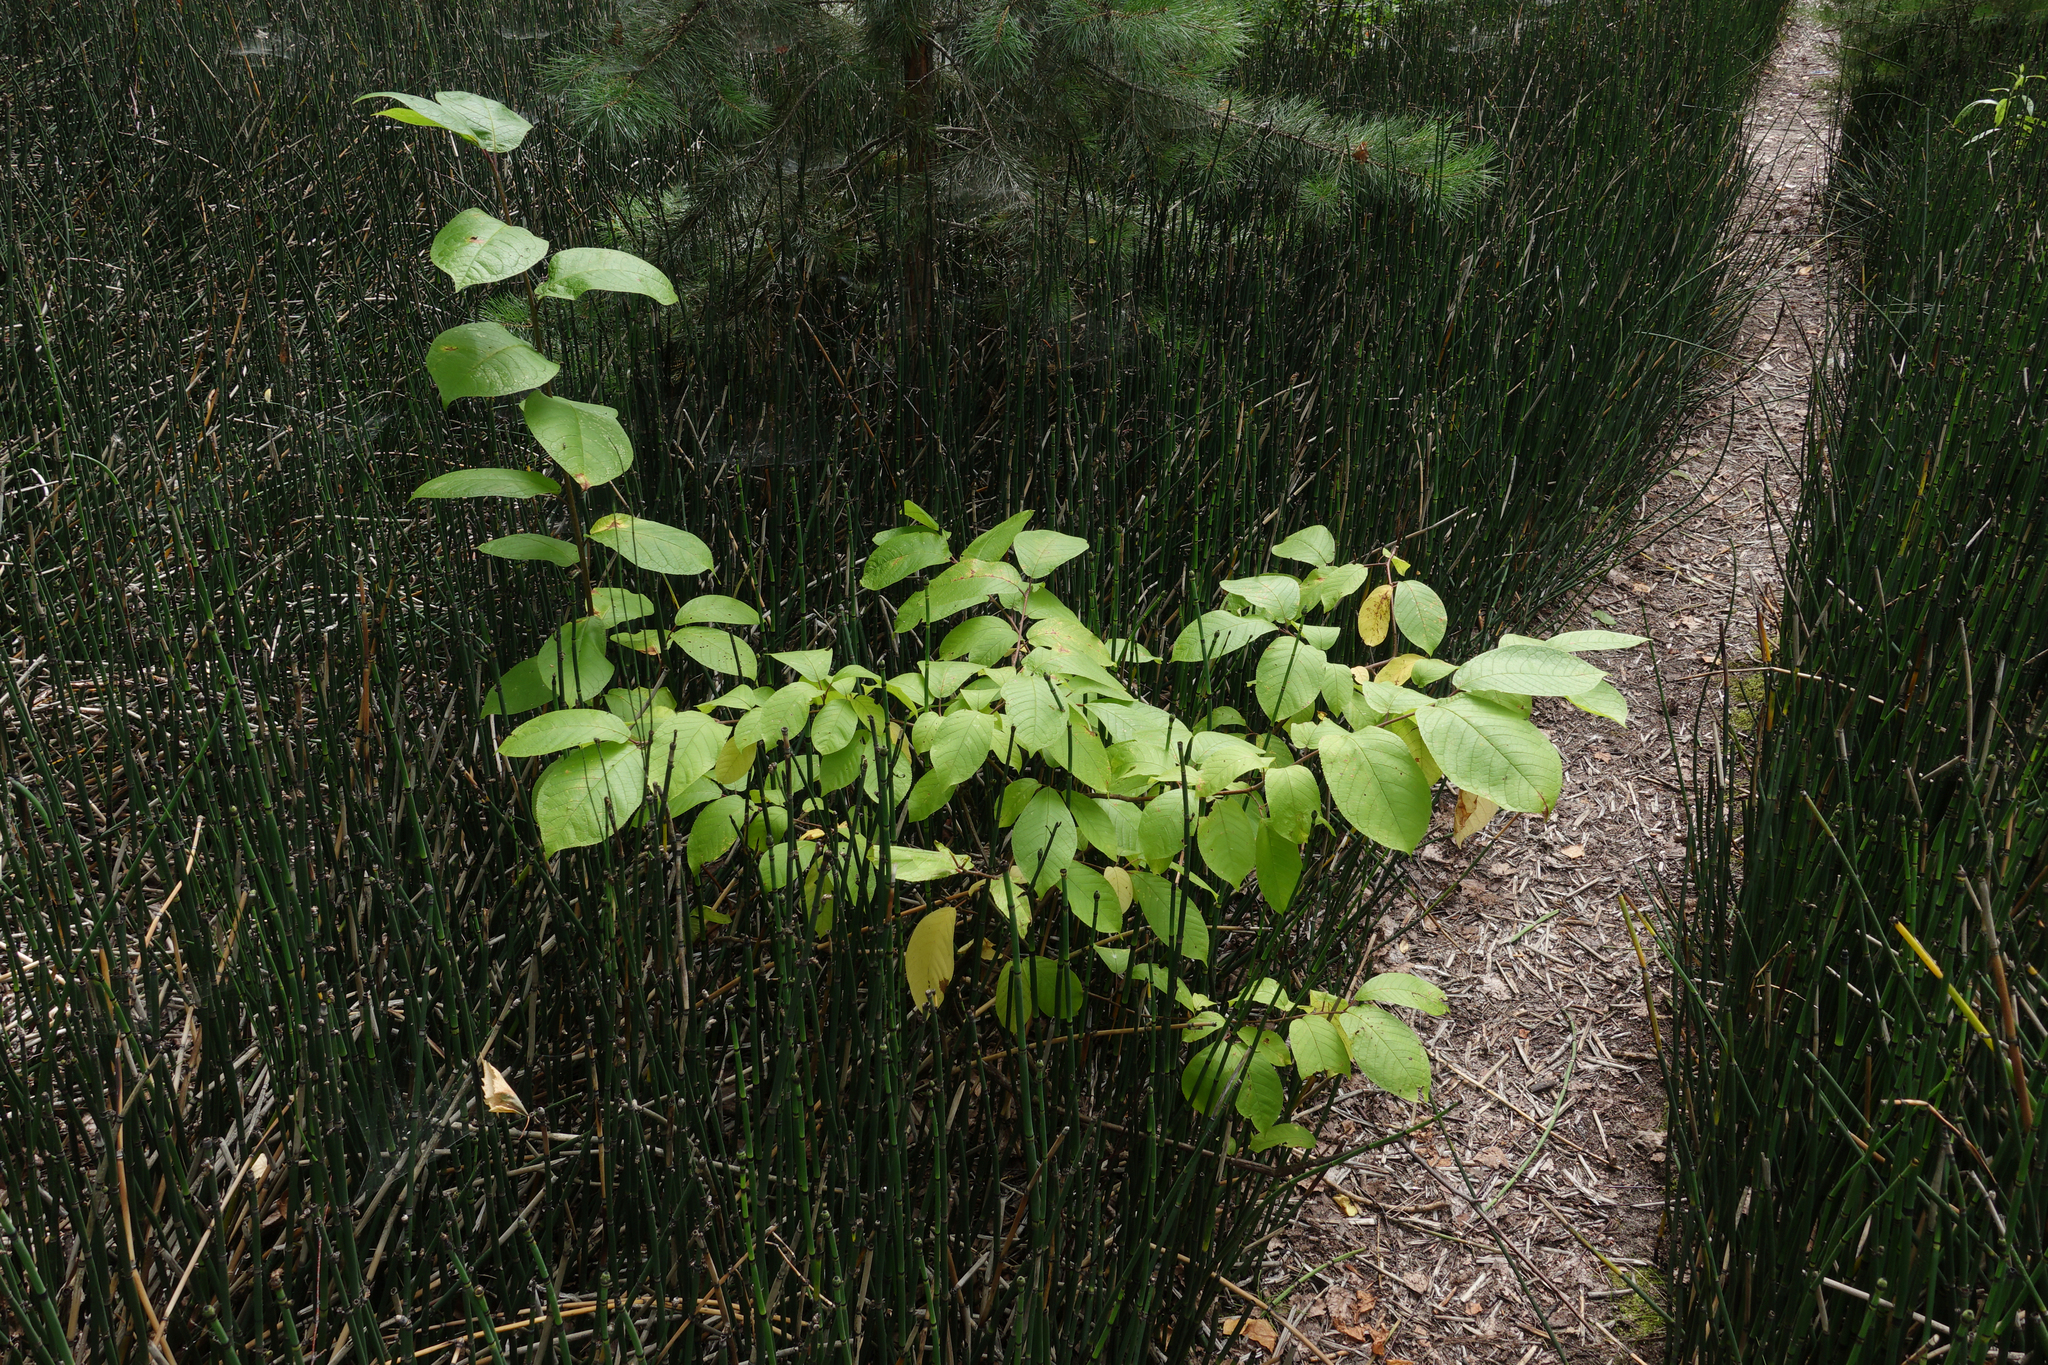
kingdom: Plantae
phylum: Tracheophyta
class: Magnoliopsida
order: Rosales
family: Rosaceae
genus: Prunus
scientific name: Prunus padus
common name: Bird cherry
